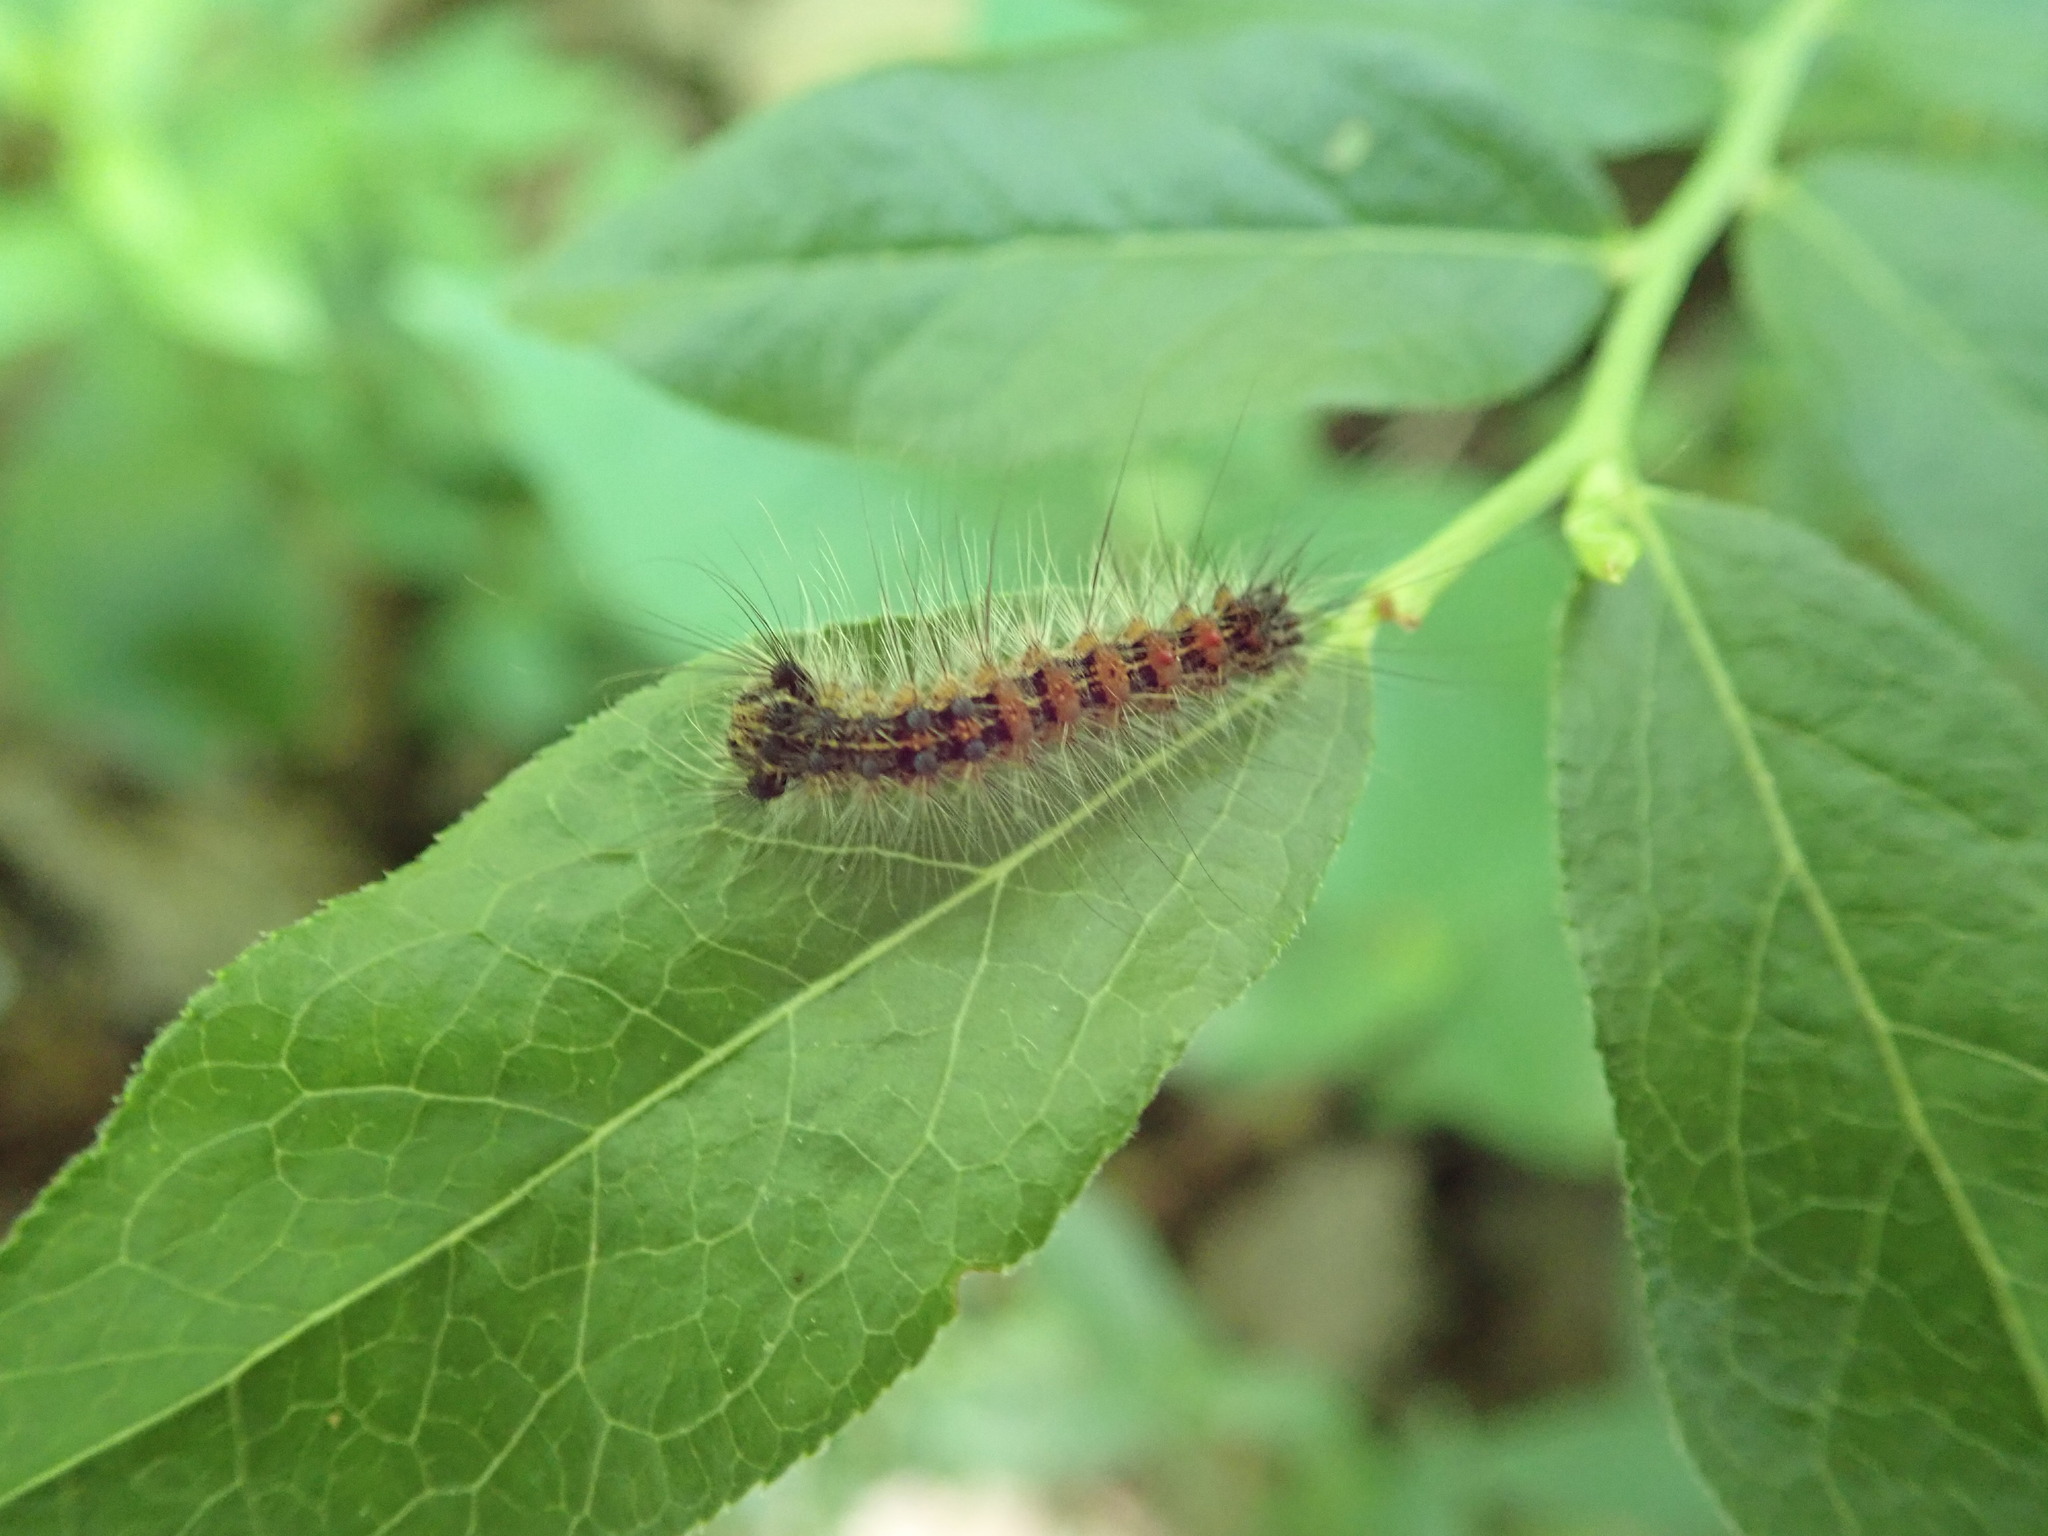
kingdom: Animalia
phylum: Arthropoda
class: Insecta
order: Lepidoptera
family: Erebidae
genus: Lymantria
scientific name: Lymantria dispar
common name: Gypsy moth
